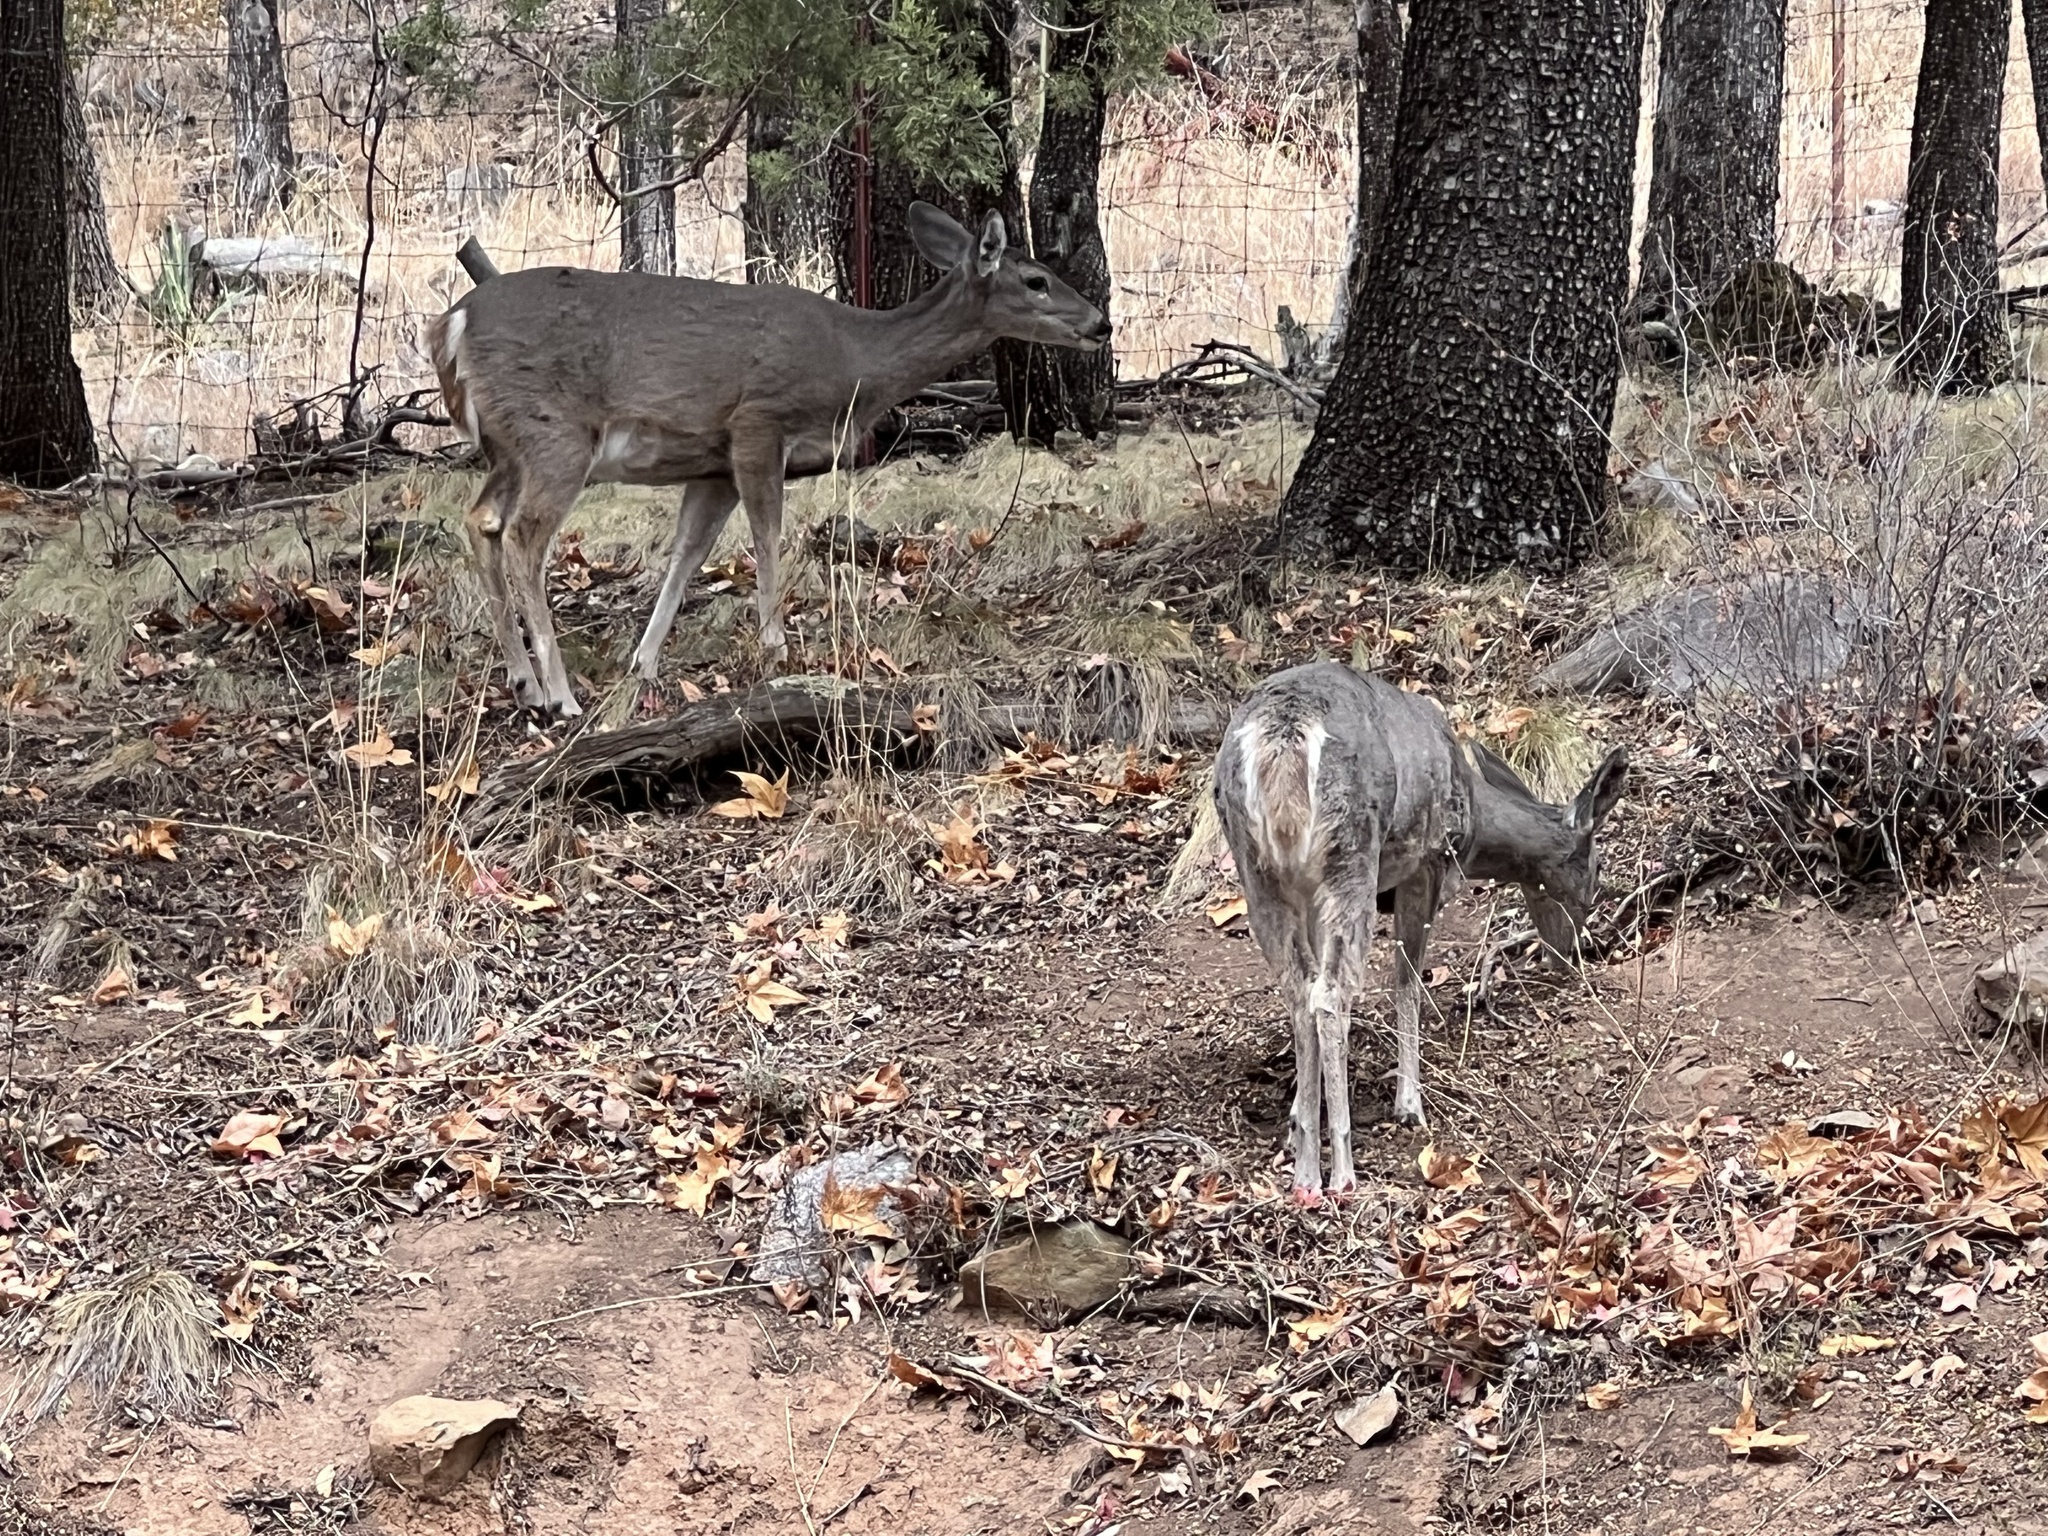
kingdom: Animalia
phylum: Chordata
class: Mammalia
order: Artiodactyla
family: Cervidae
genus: Odocoileus
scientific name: Odocoileus virginianus
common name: White-tailed deer
